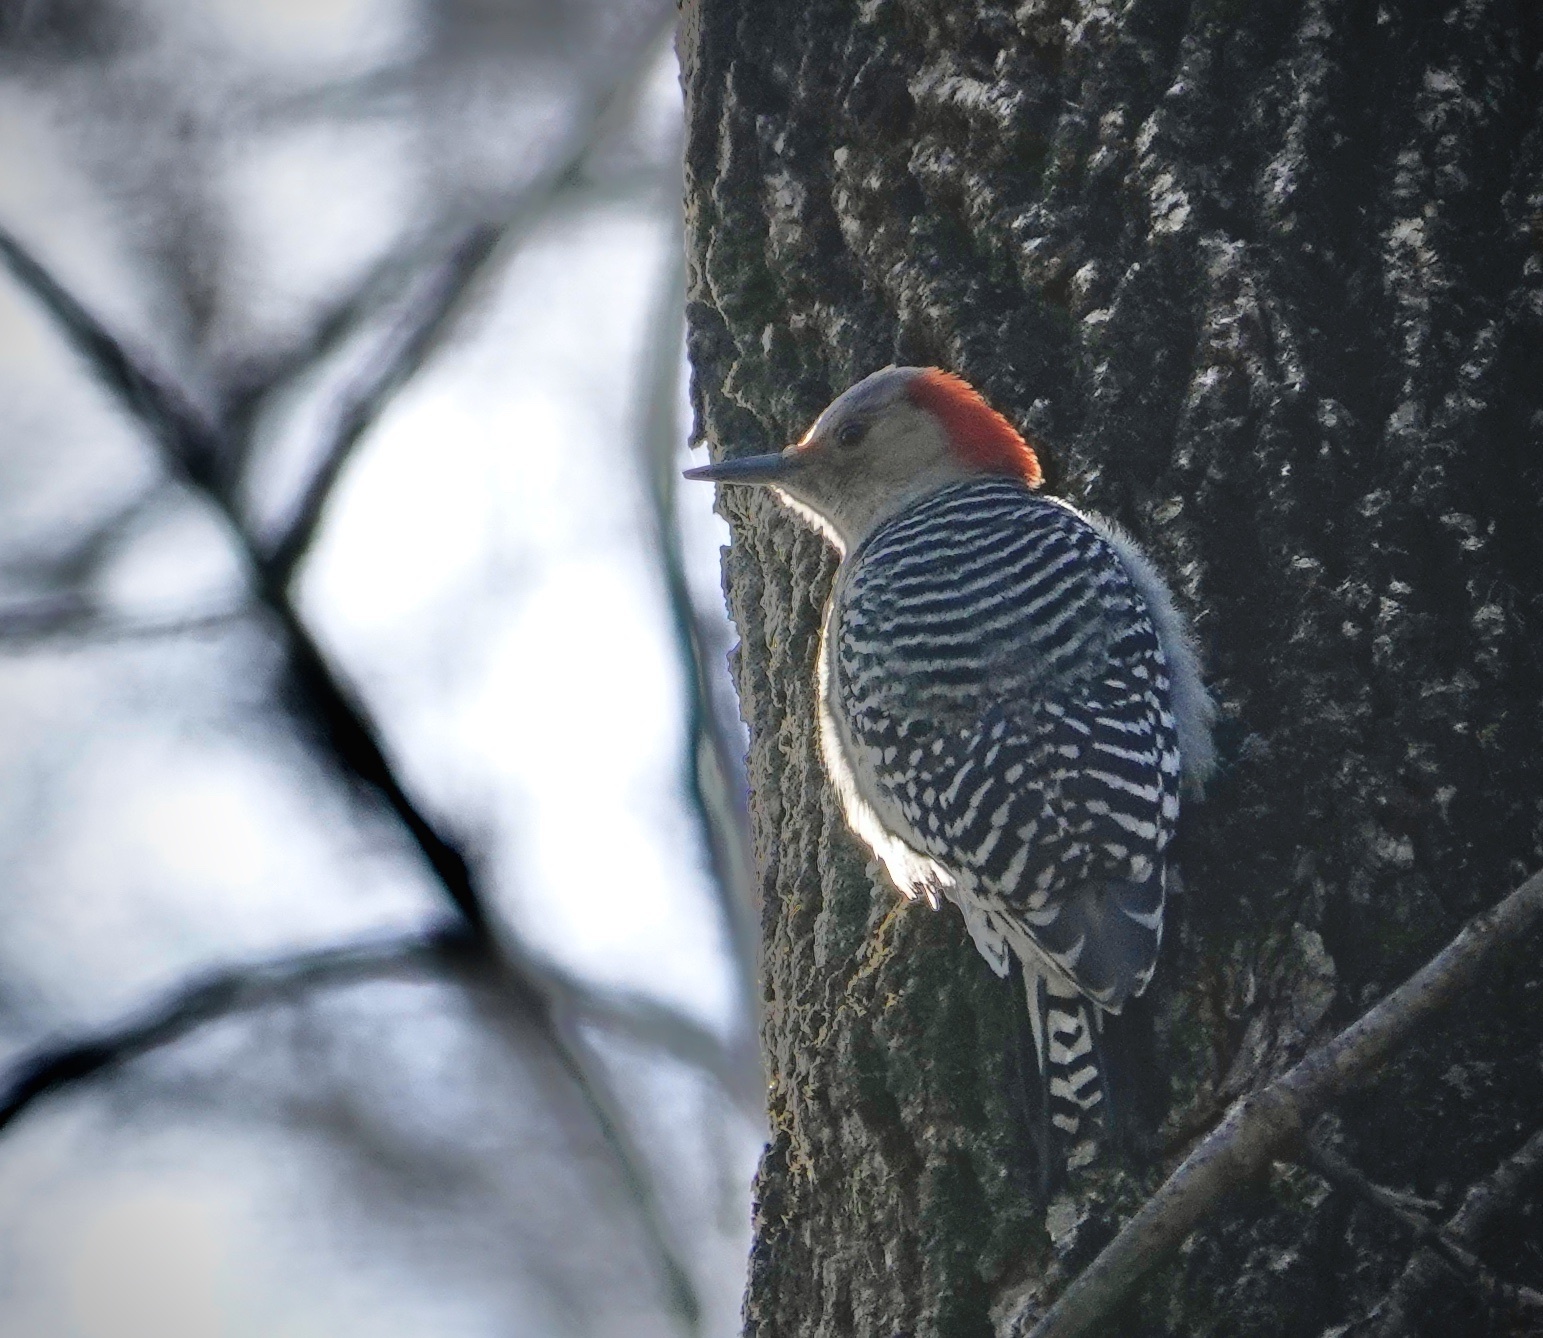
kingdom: Animalia
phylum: Chordata
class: Aves
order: Piciformes
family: Picidae
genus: Melanerpes
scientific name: Melanerpes carolinus
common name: Red-bellied woodpecker
